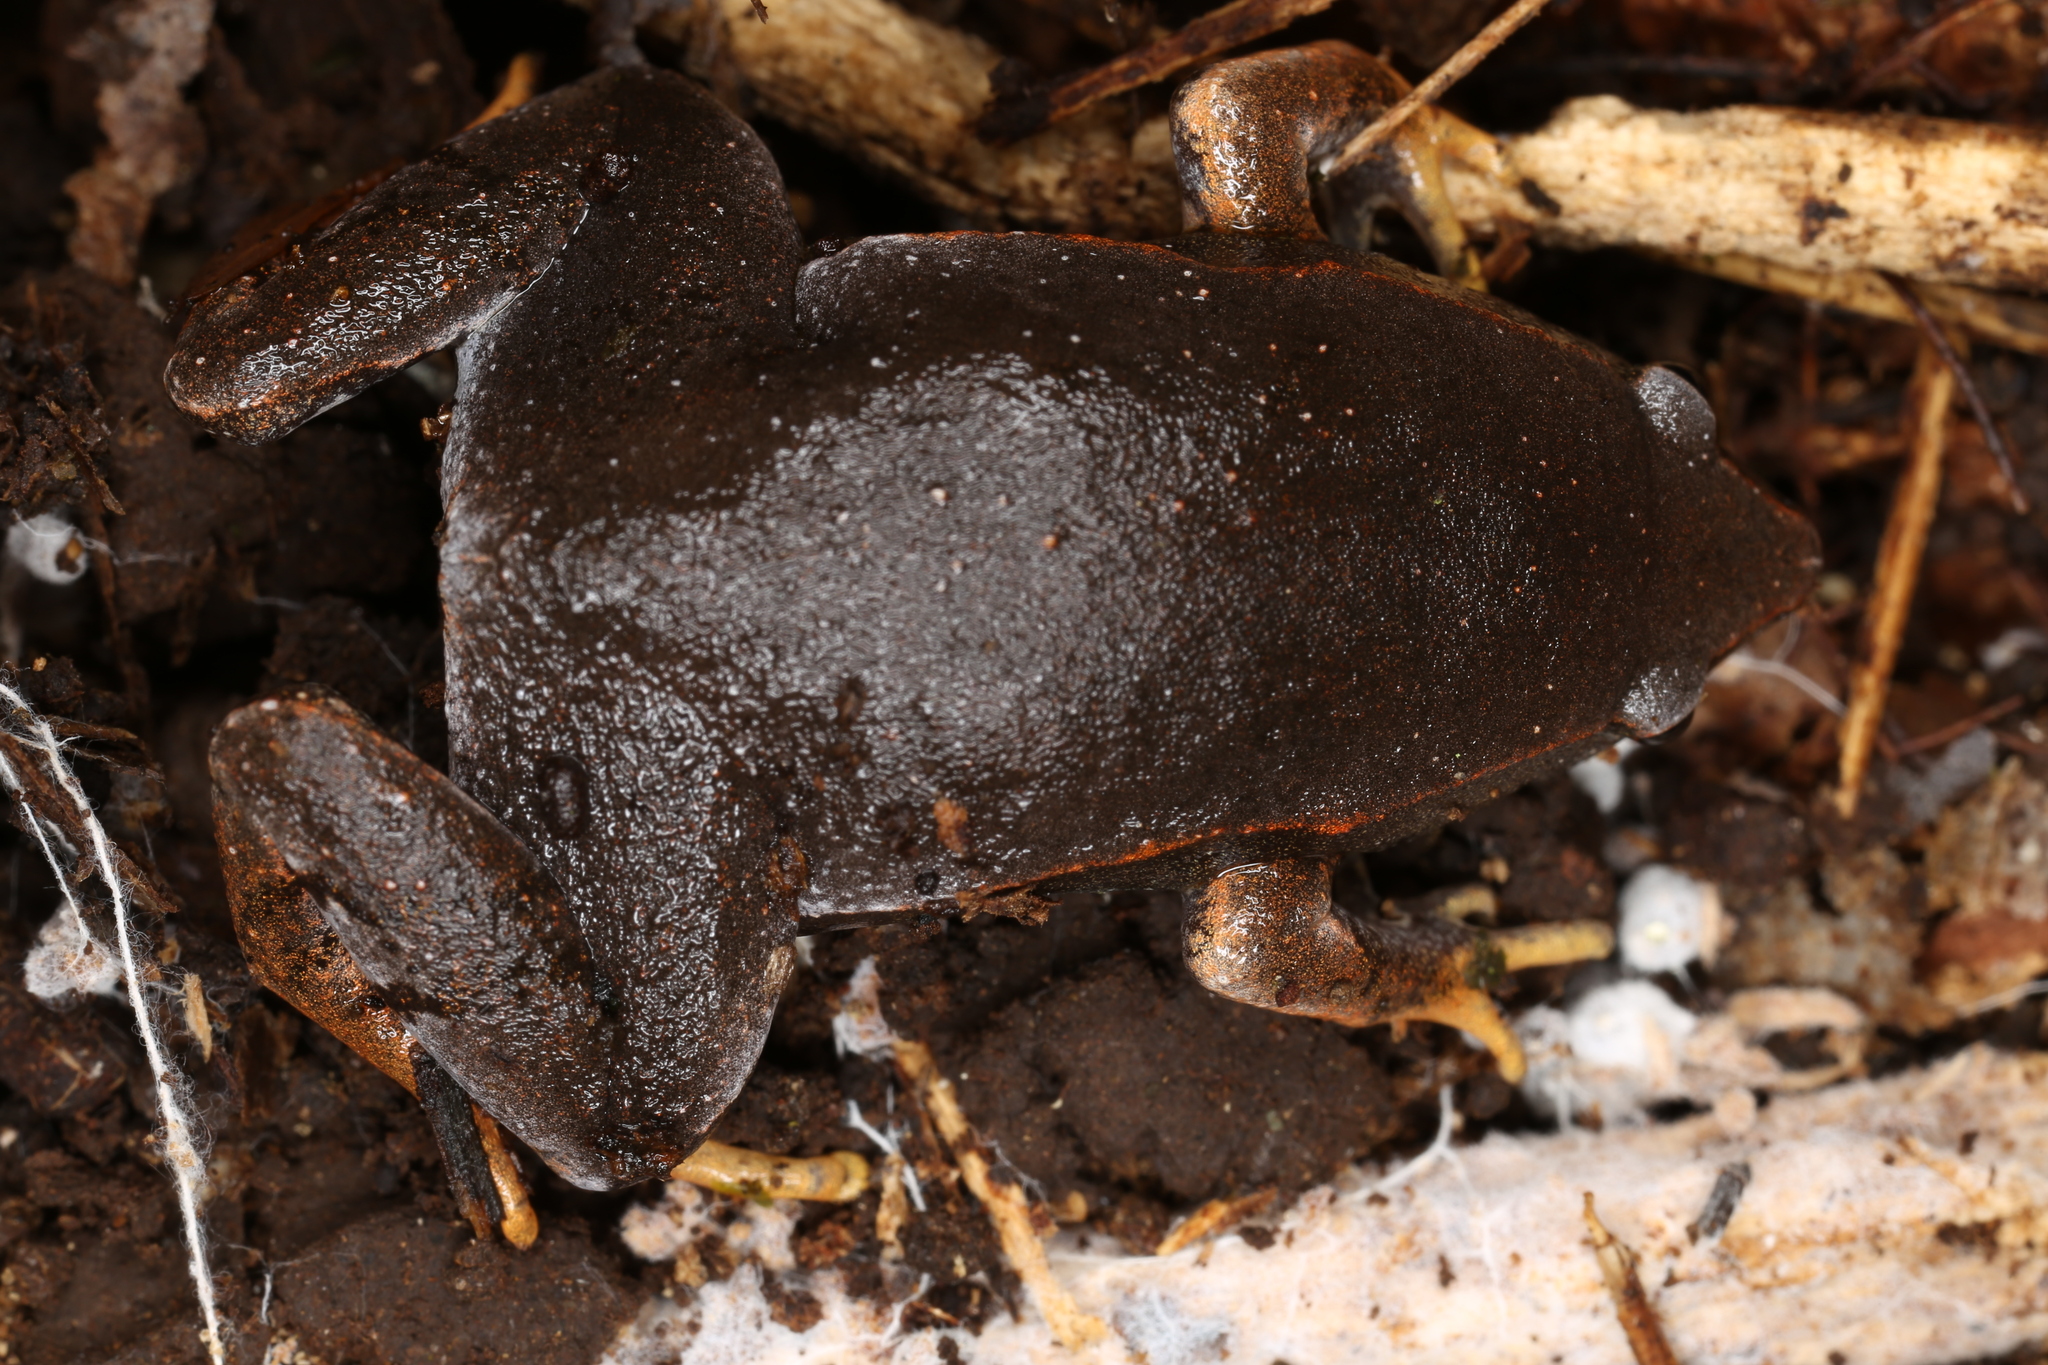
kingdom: Animalia
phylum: Chordata
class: Amphibia
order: Anura
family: Microhylidae
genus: Hypopachus
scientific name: Hypopachus pictiventris
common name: Nicaragua narrowmouth toad
